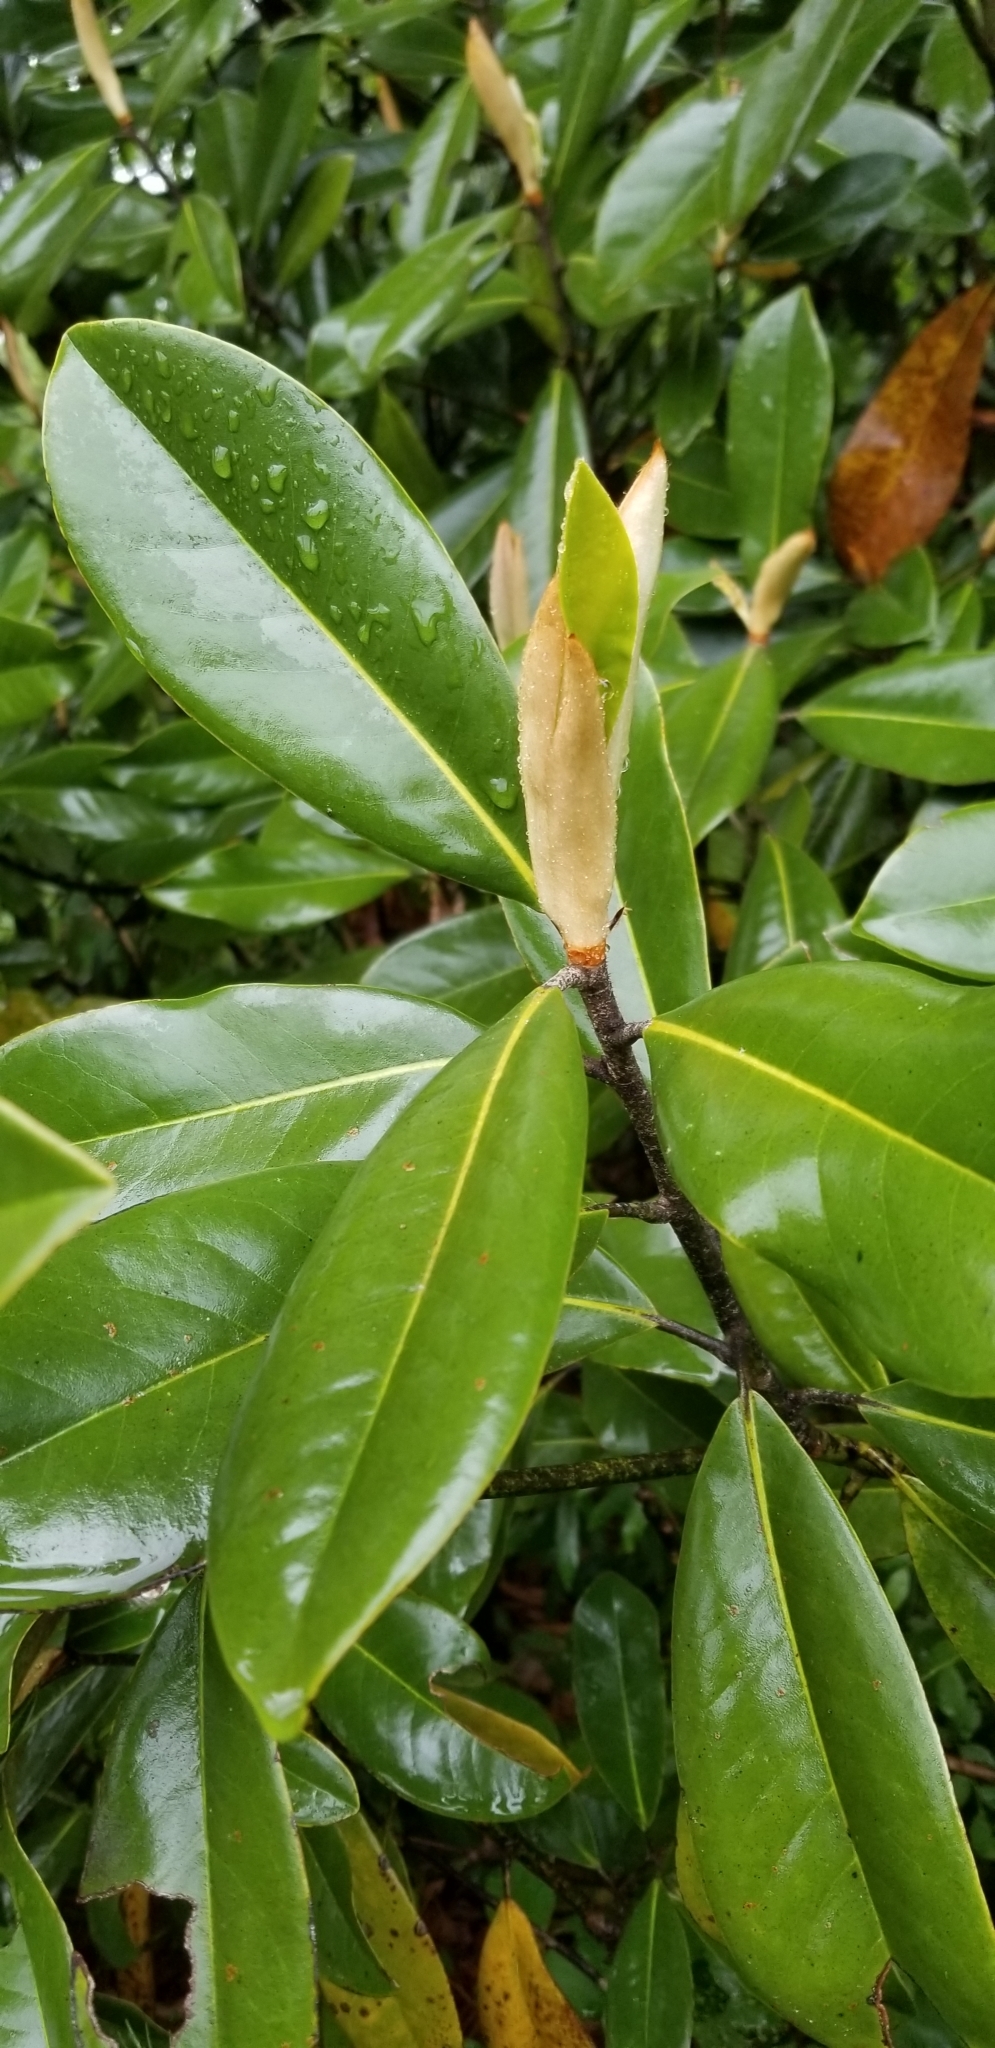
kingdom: Plantae
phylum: Tracheophyta
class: Magnoliopsida
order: Magnoliales
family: Magnoliaceae
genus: Magnolia
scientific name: Magnolia grandiflora
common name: Southern magnolia
